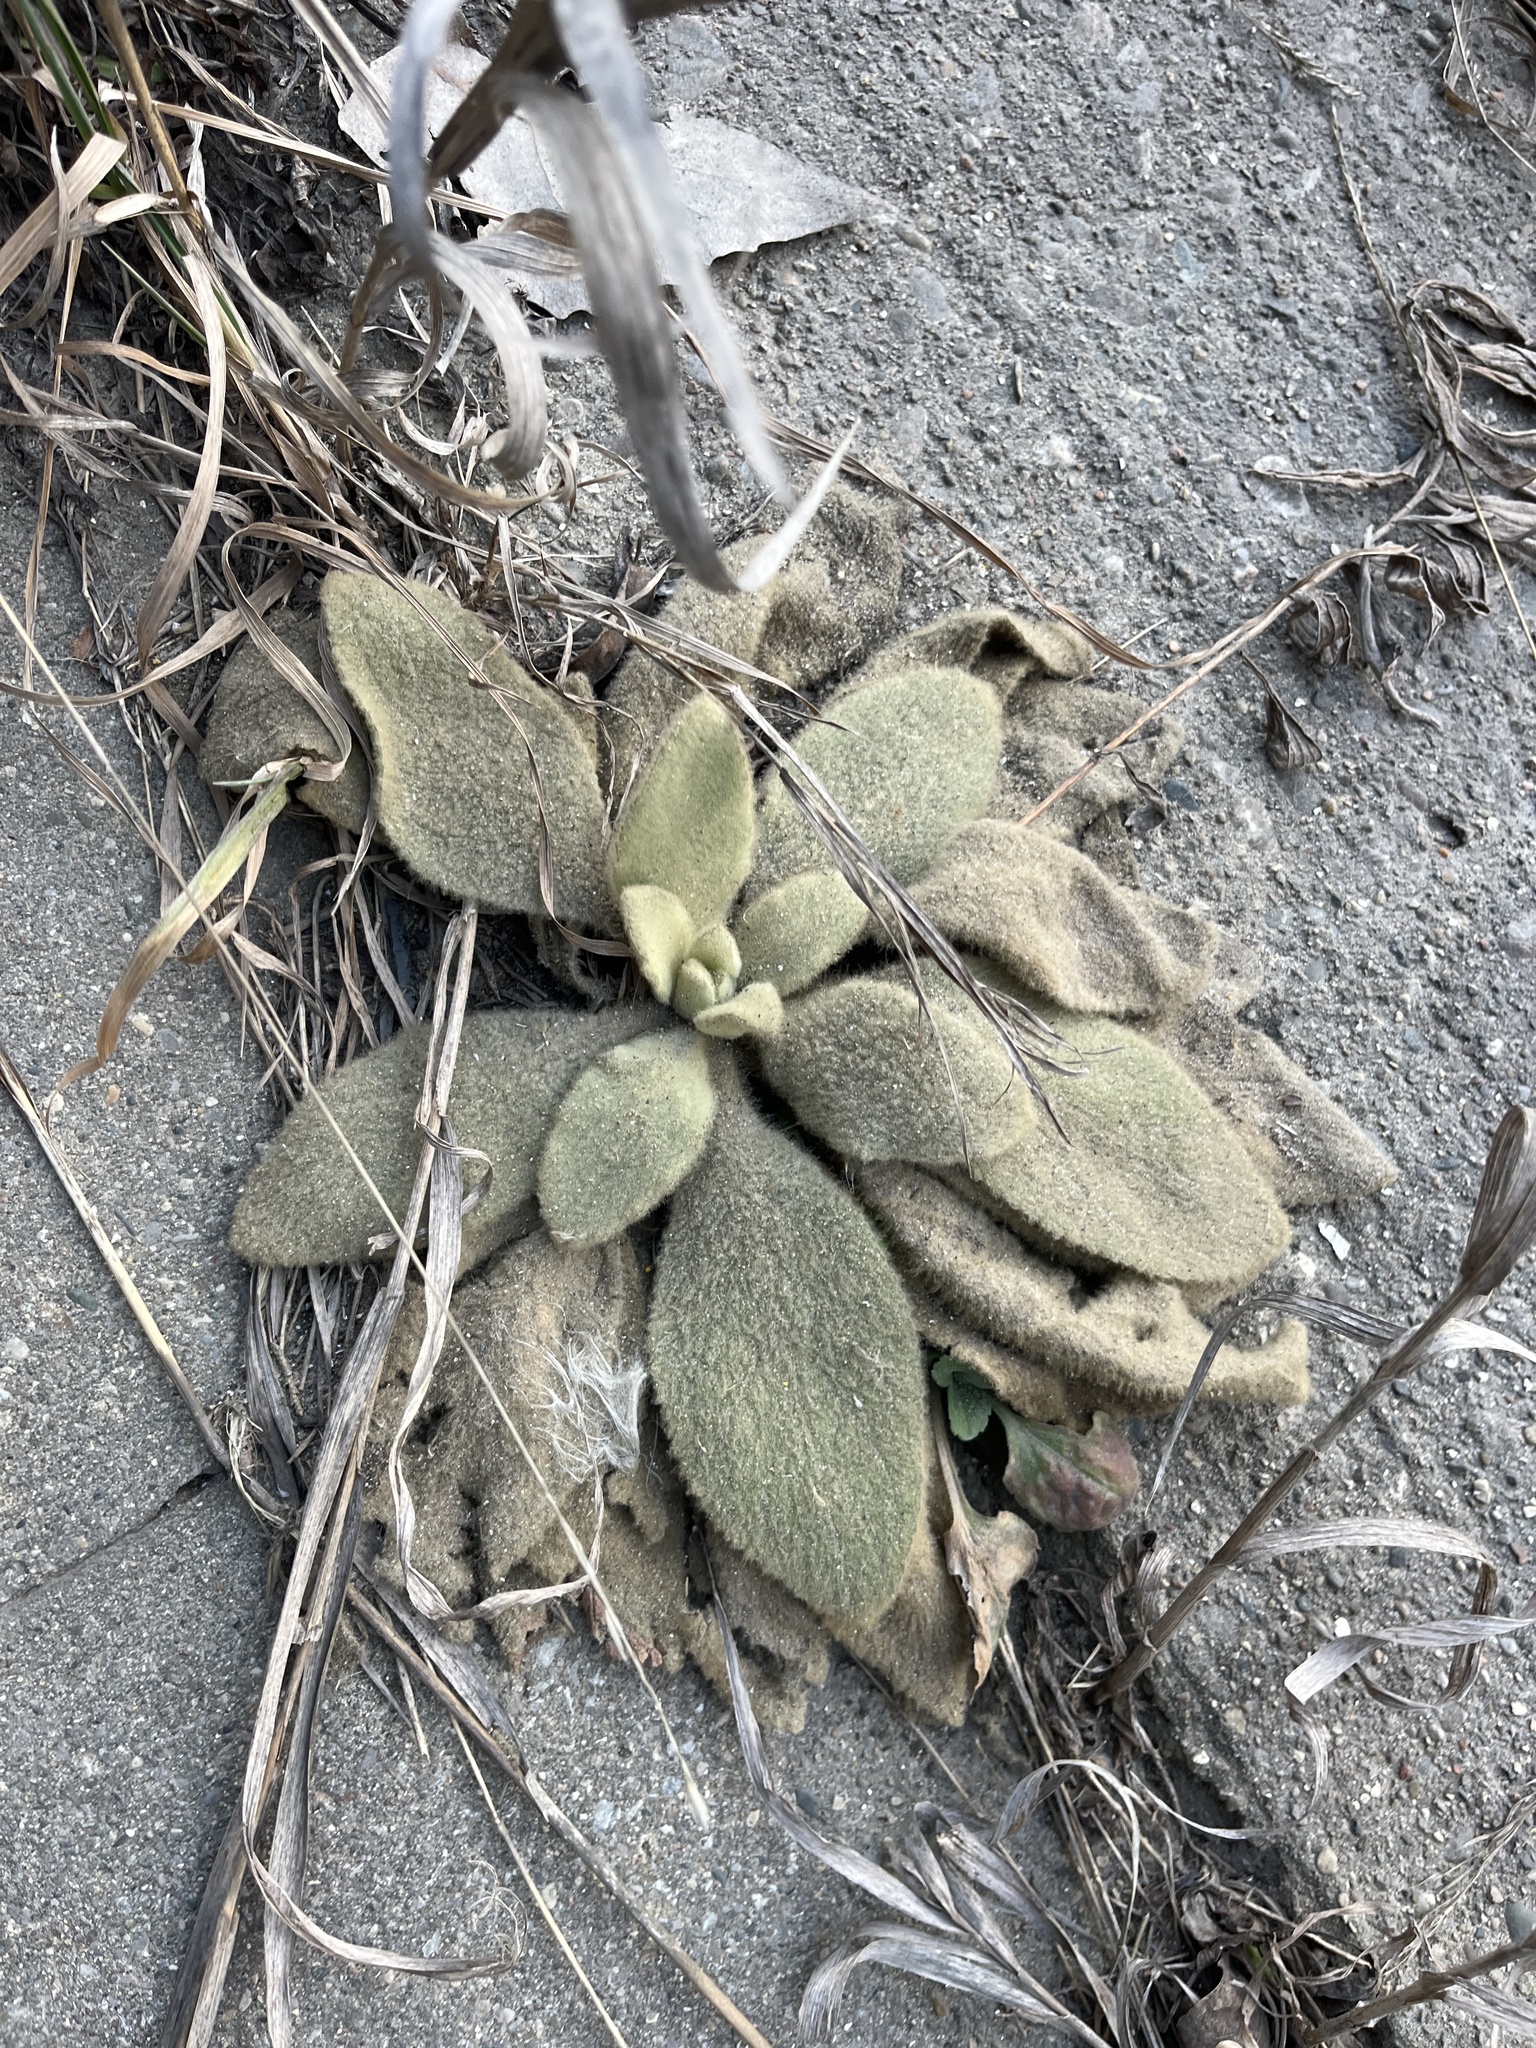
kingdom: Plantae
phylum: Tracheophyta
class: Magnoliopsida
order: Lamiales
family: Scrophulariaceae
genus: Verbascum
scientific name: Verbascum thapsus
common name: Common mullein
